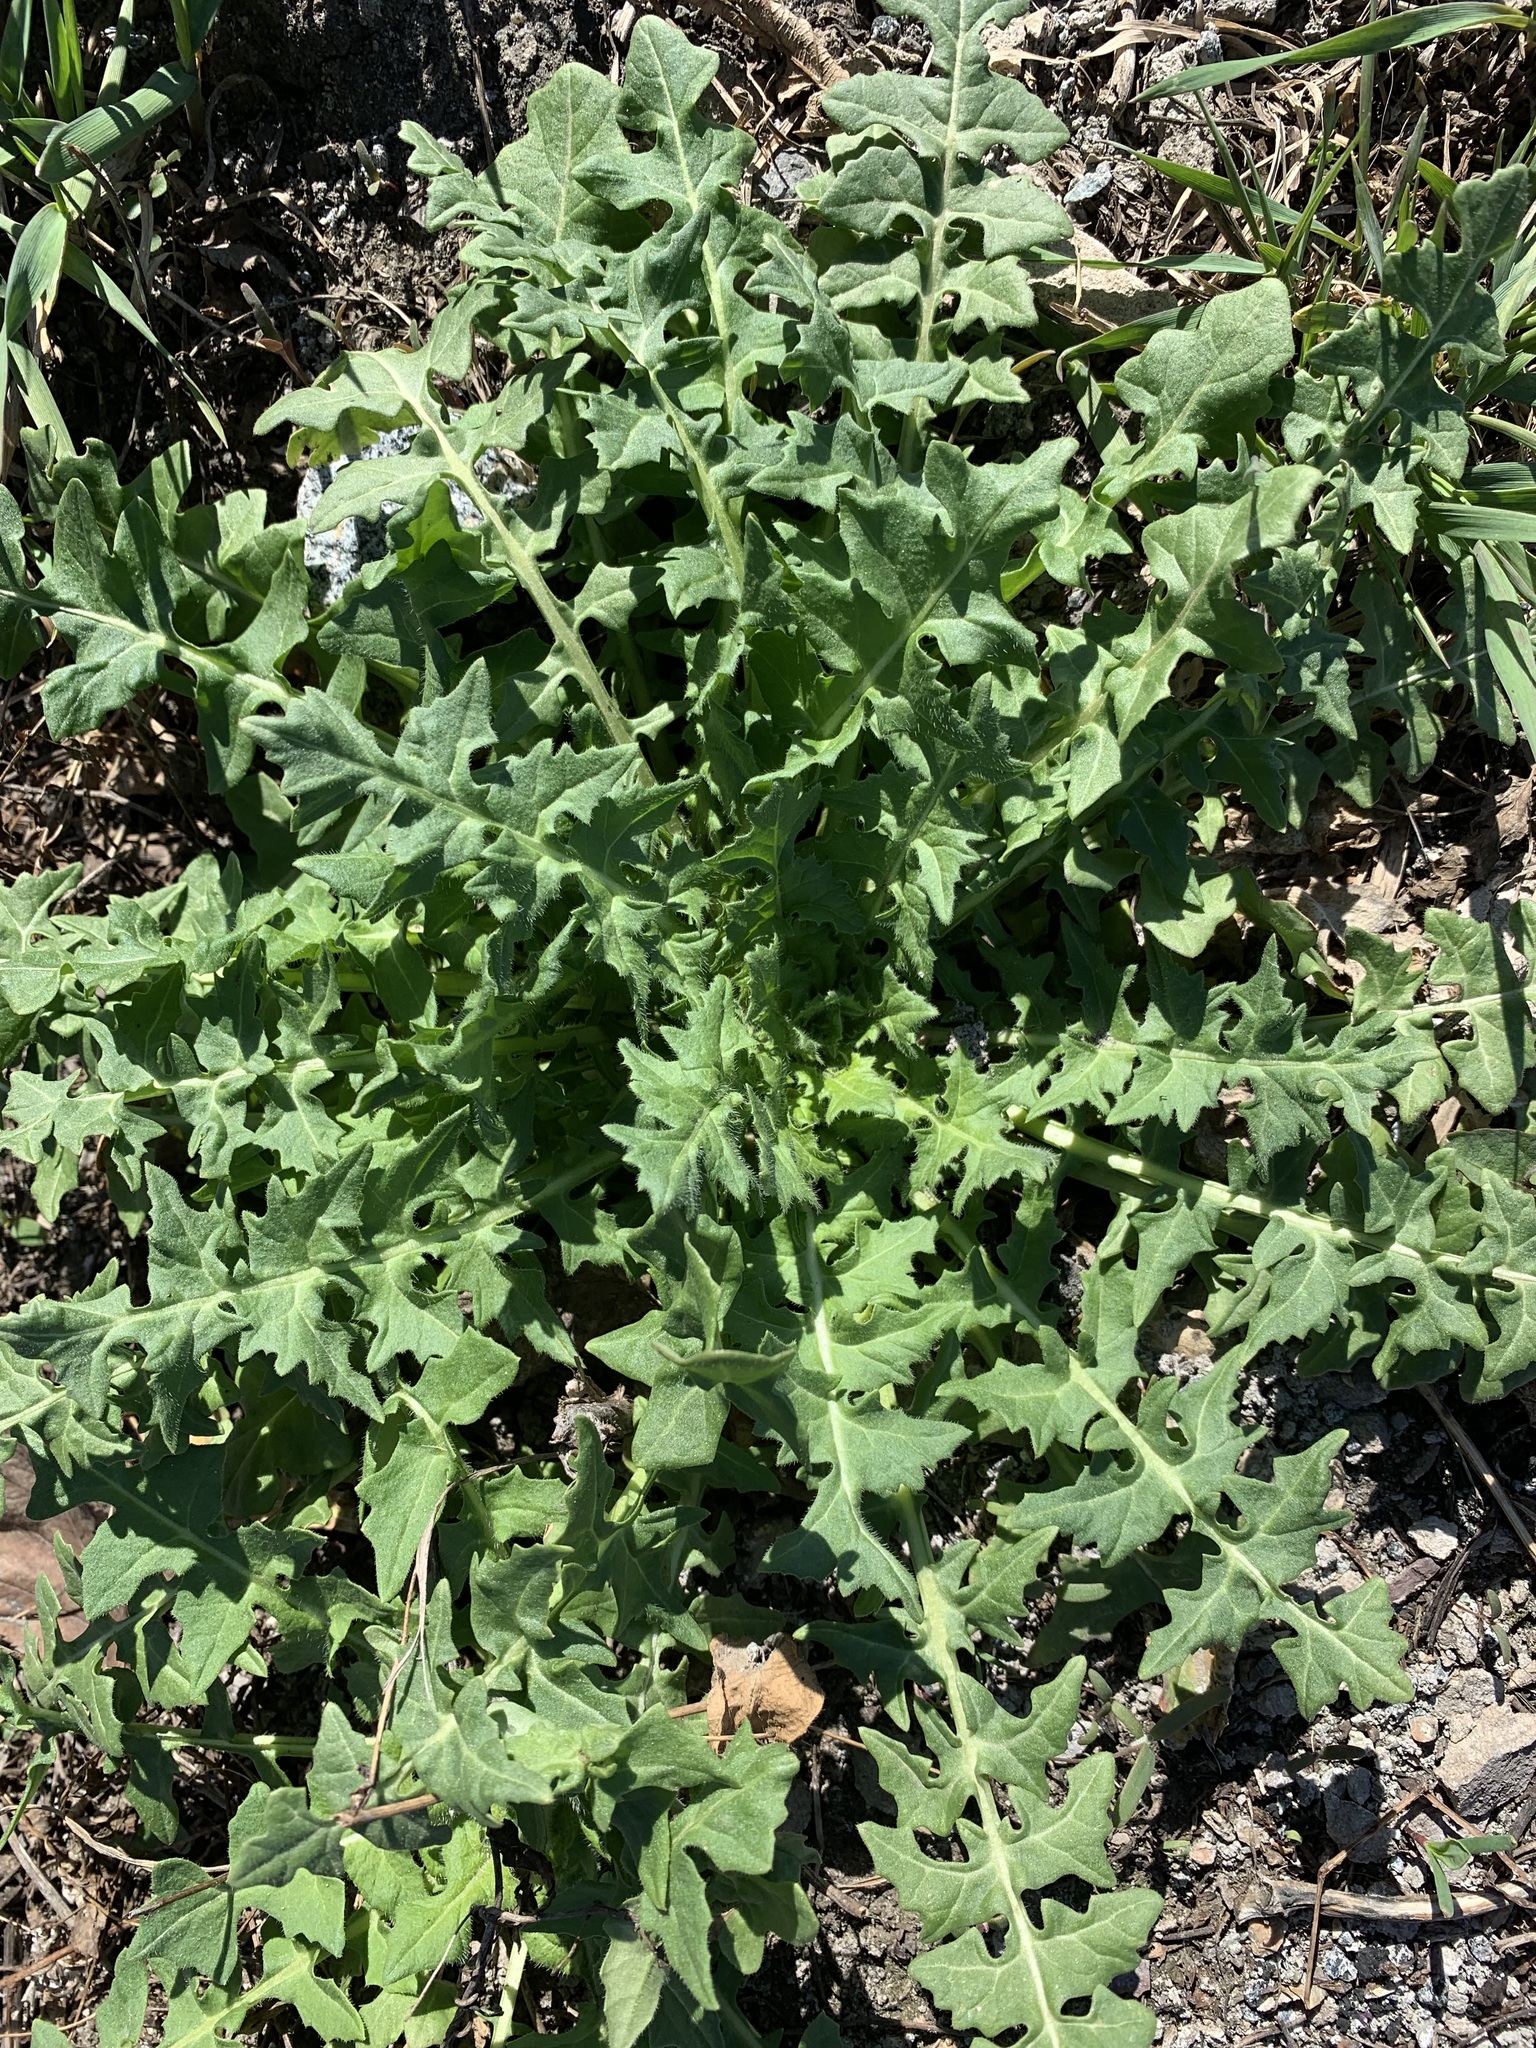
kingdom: Plantae
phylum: Tracheophyta
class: Magnoliopsida
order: Brassicales
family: Brassicaceae
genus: Sisymbrium
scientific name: Sisymbrium loeselii
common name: False london-rocket
